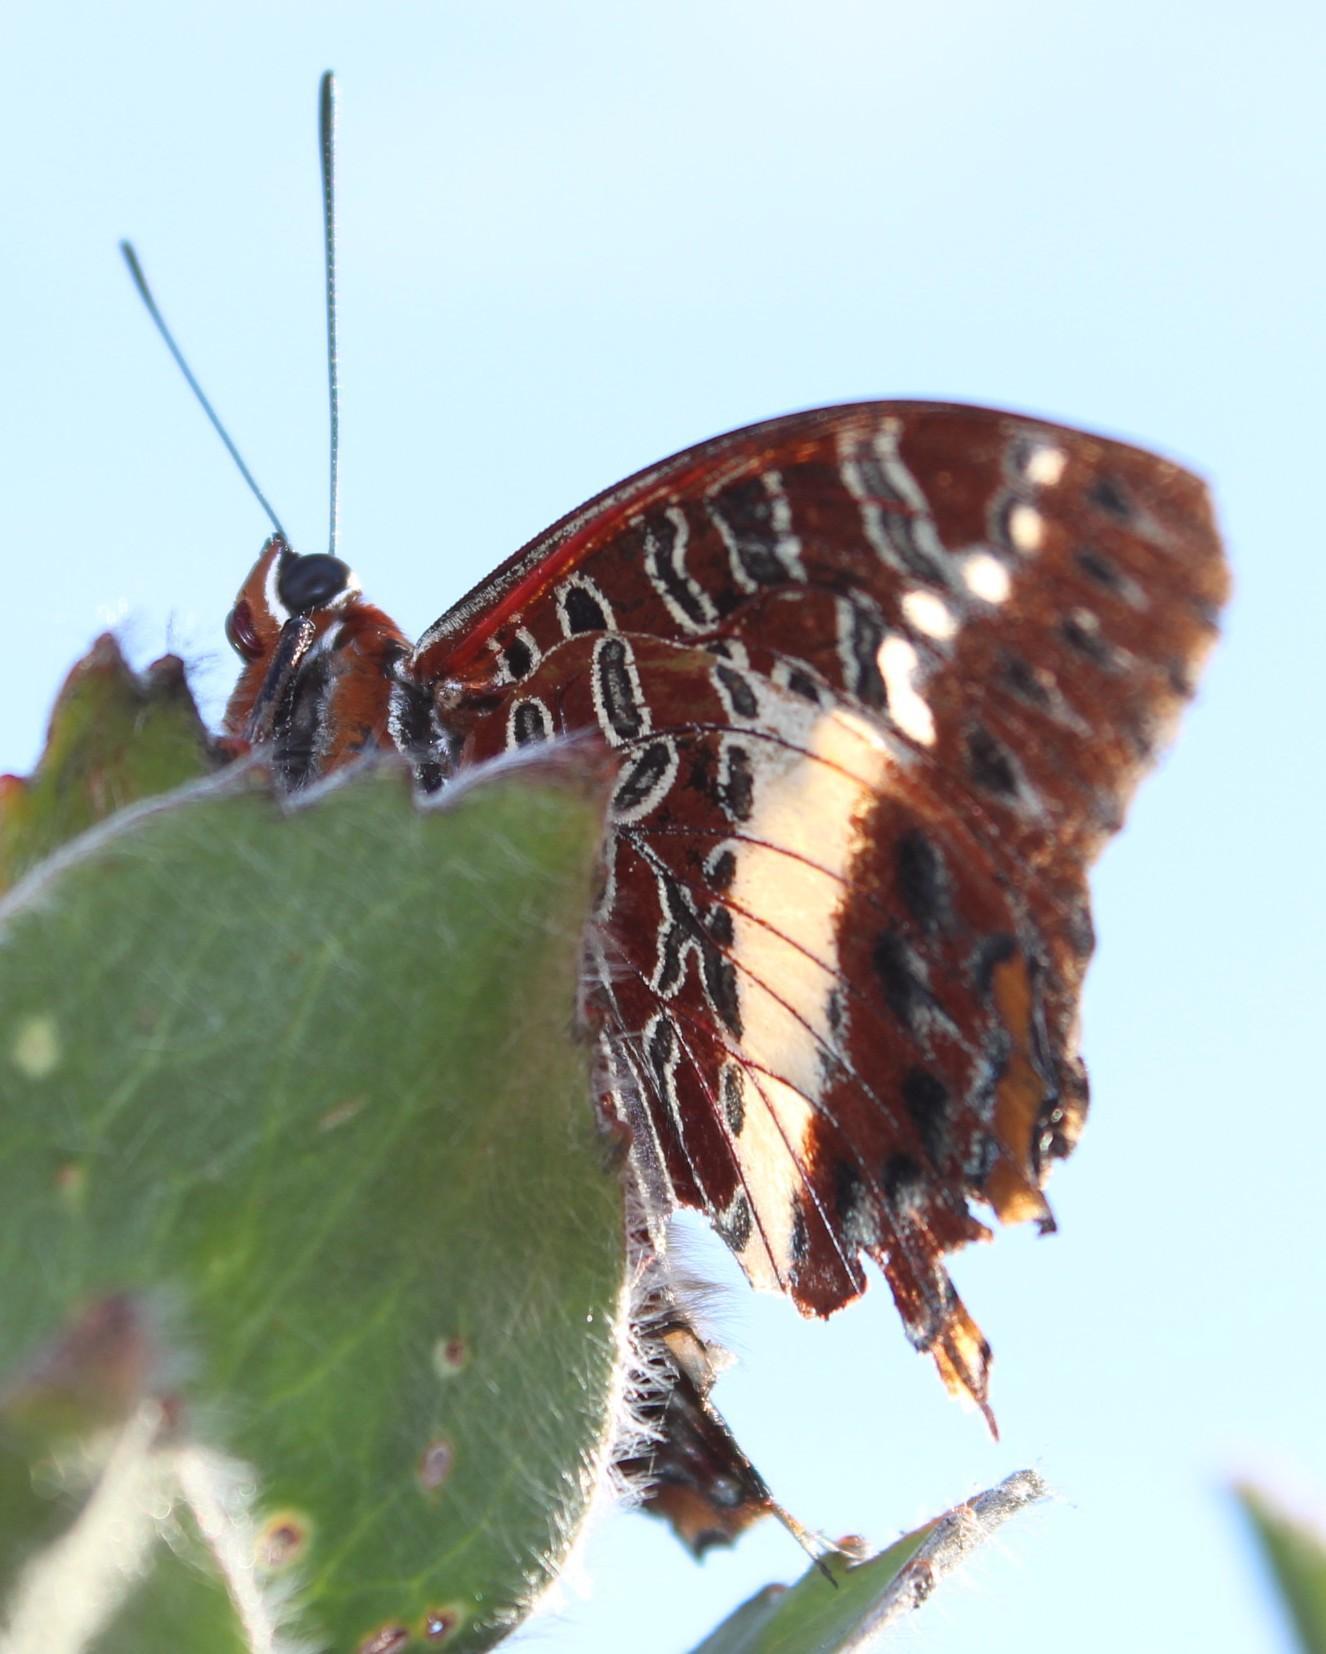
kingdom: Animalia
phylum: Arthropoda
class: Insecta
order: Lepidoptera
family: Nymphalidae
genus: Charaxes
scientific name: Charaxes brutus
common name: White-barred charaxes
